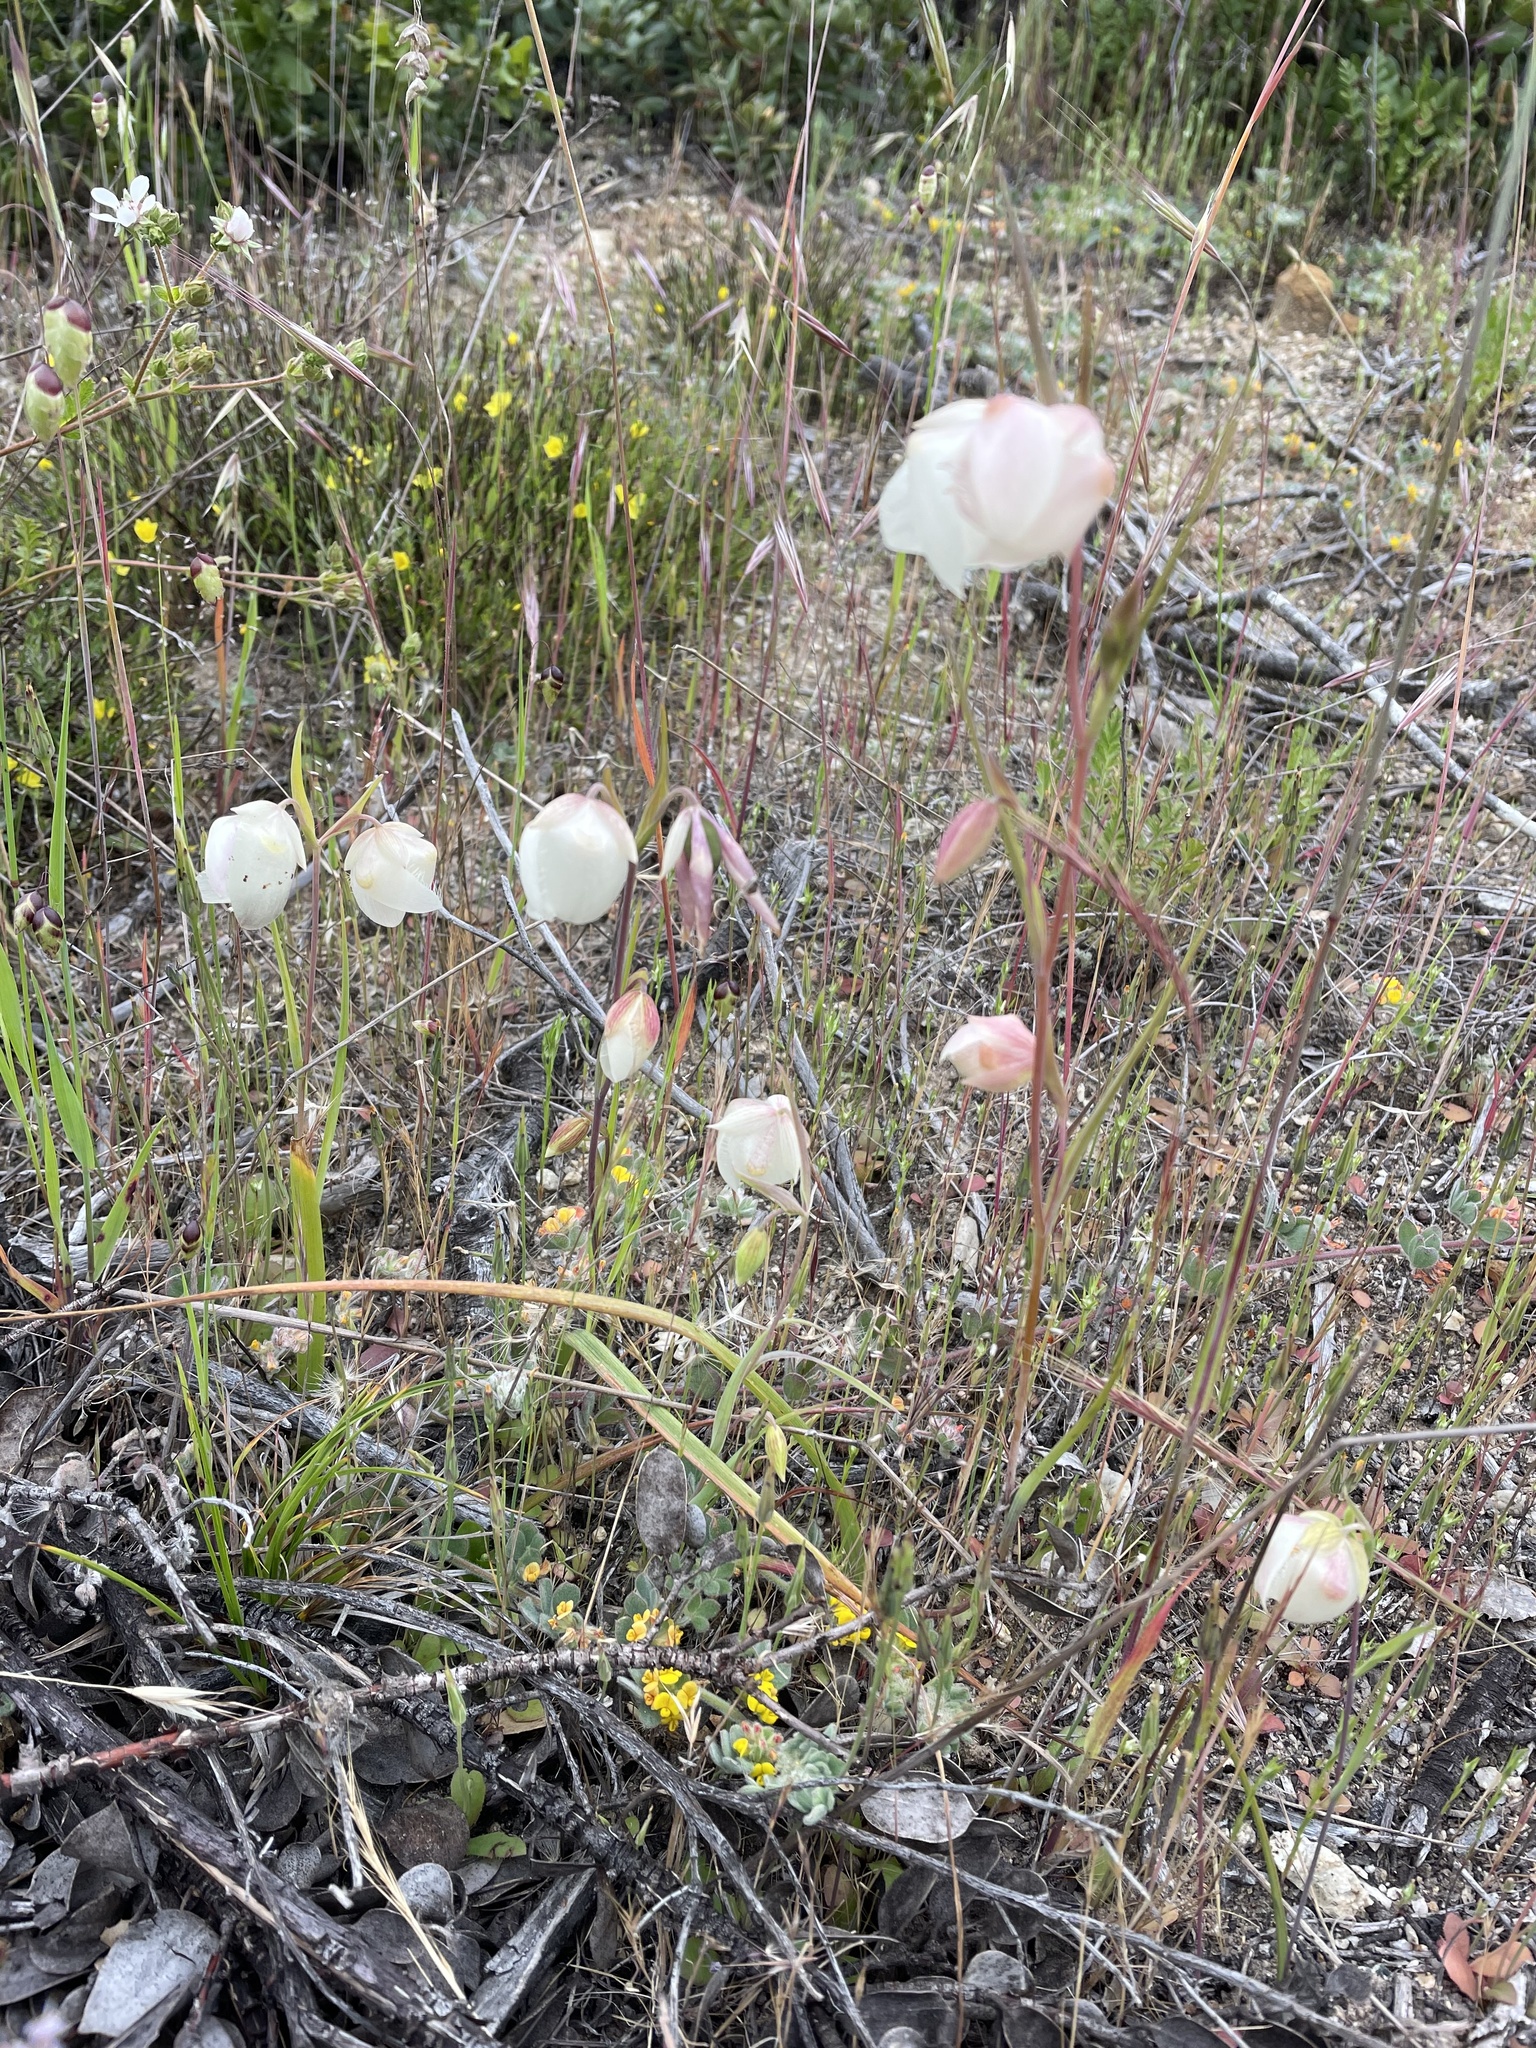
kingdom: Plantae
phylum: Tracheophyta
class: Liliopsida
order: Liliales
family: Liliaceae
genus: Calochortus
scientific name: Calochortus albus
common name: Fairy-lantern
